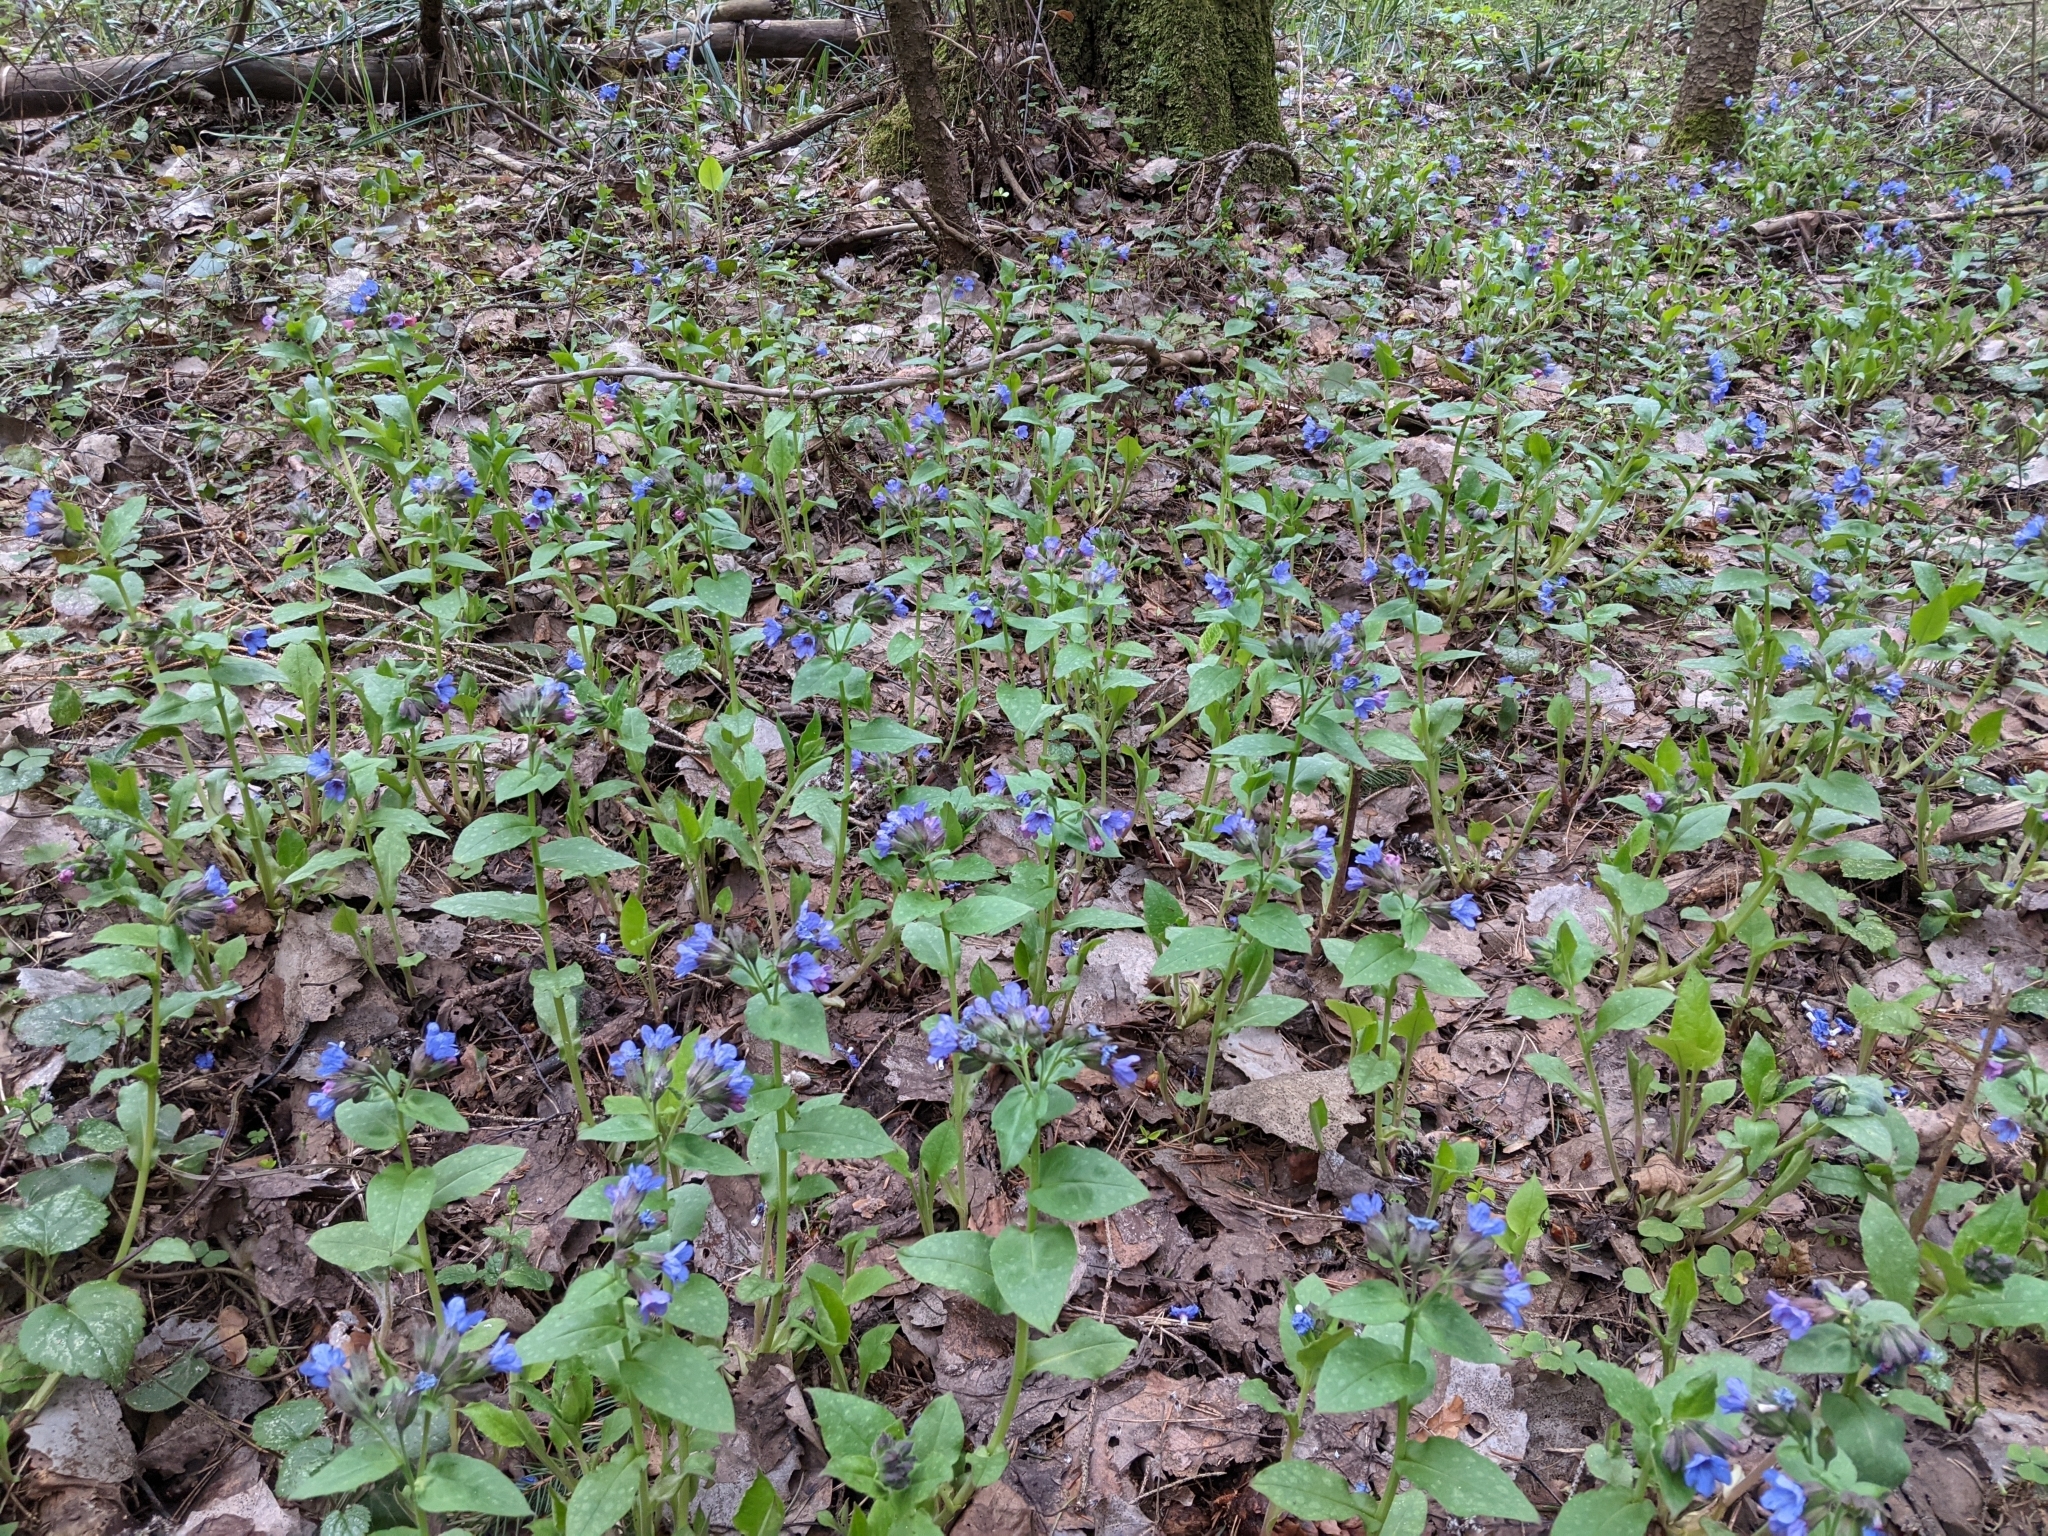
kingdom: Plantae
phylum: Tracheophyta
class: Magnoliopsida
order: Boraginales
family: Boraginaceae
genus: Pulmonaria
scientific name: Pulmonaria obscura
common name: Suffolk lungwort
